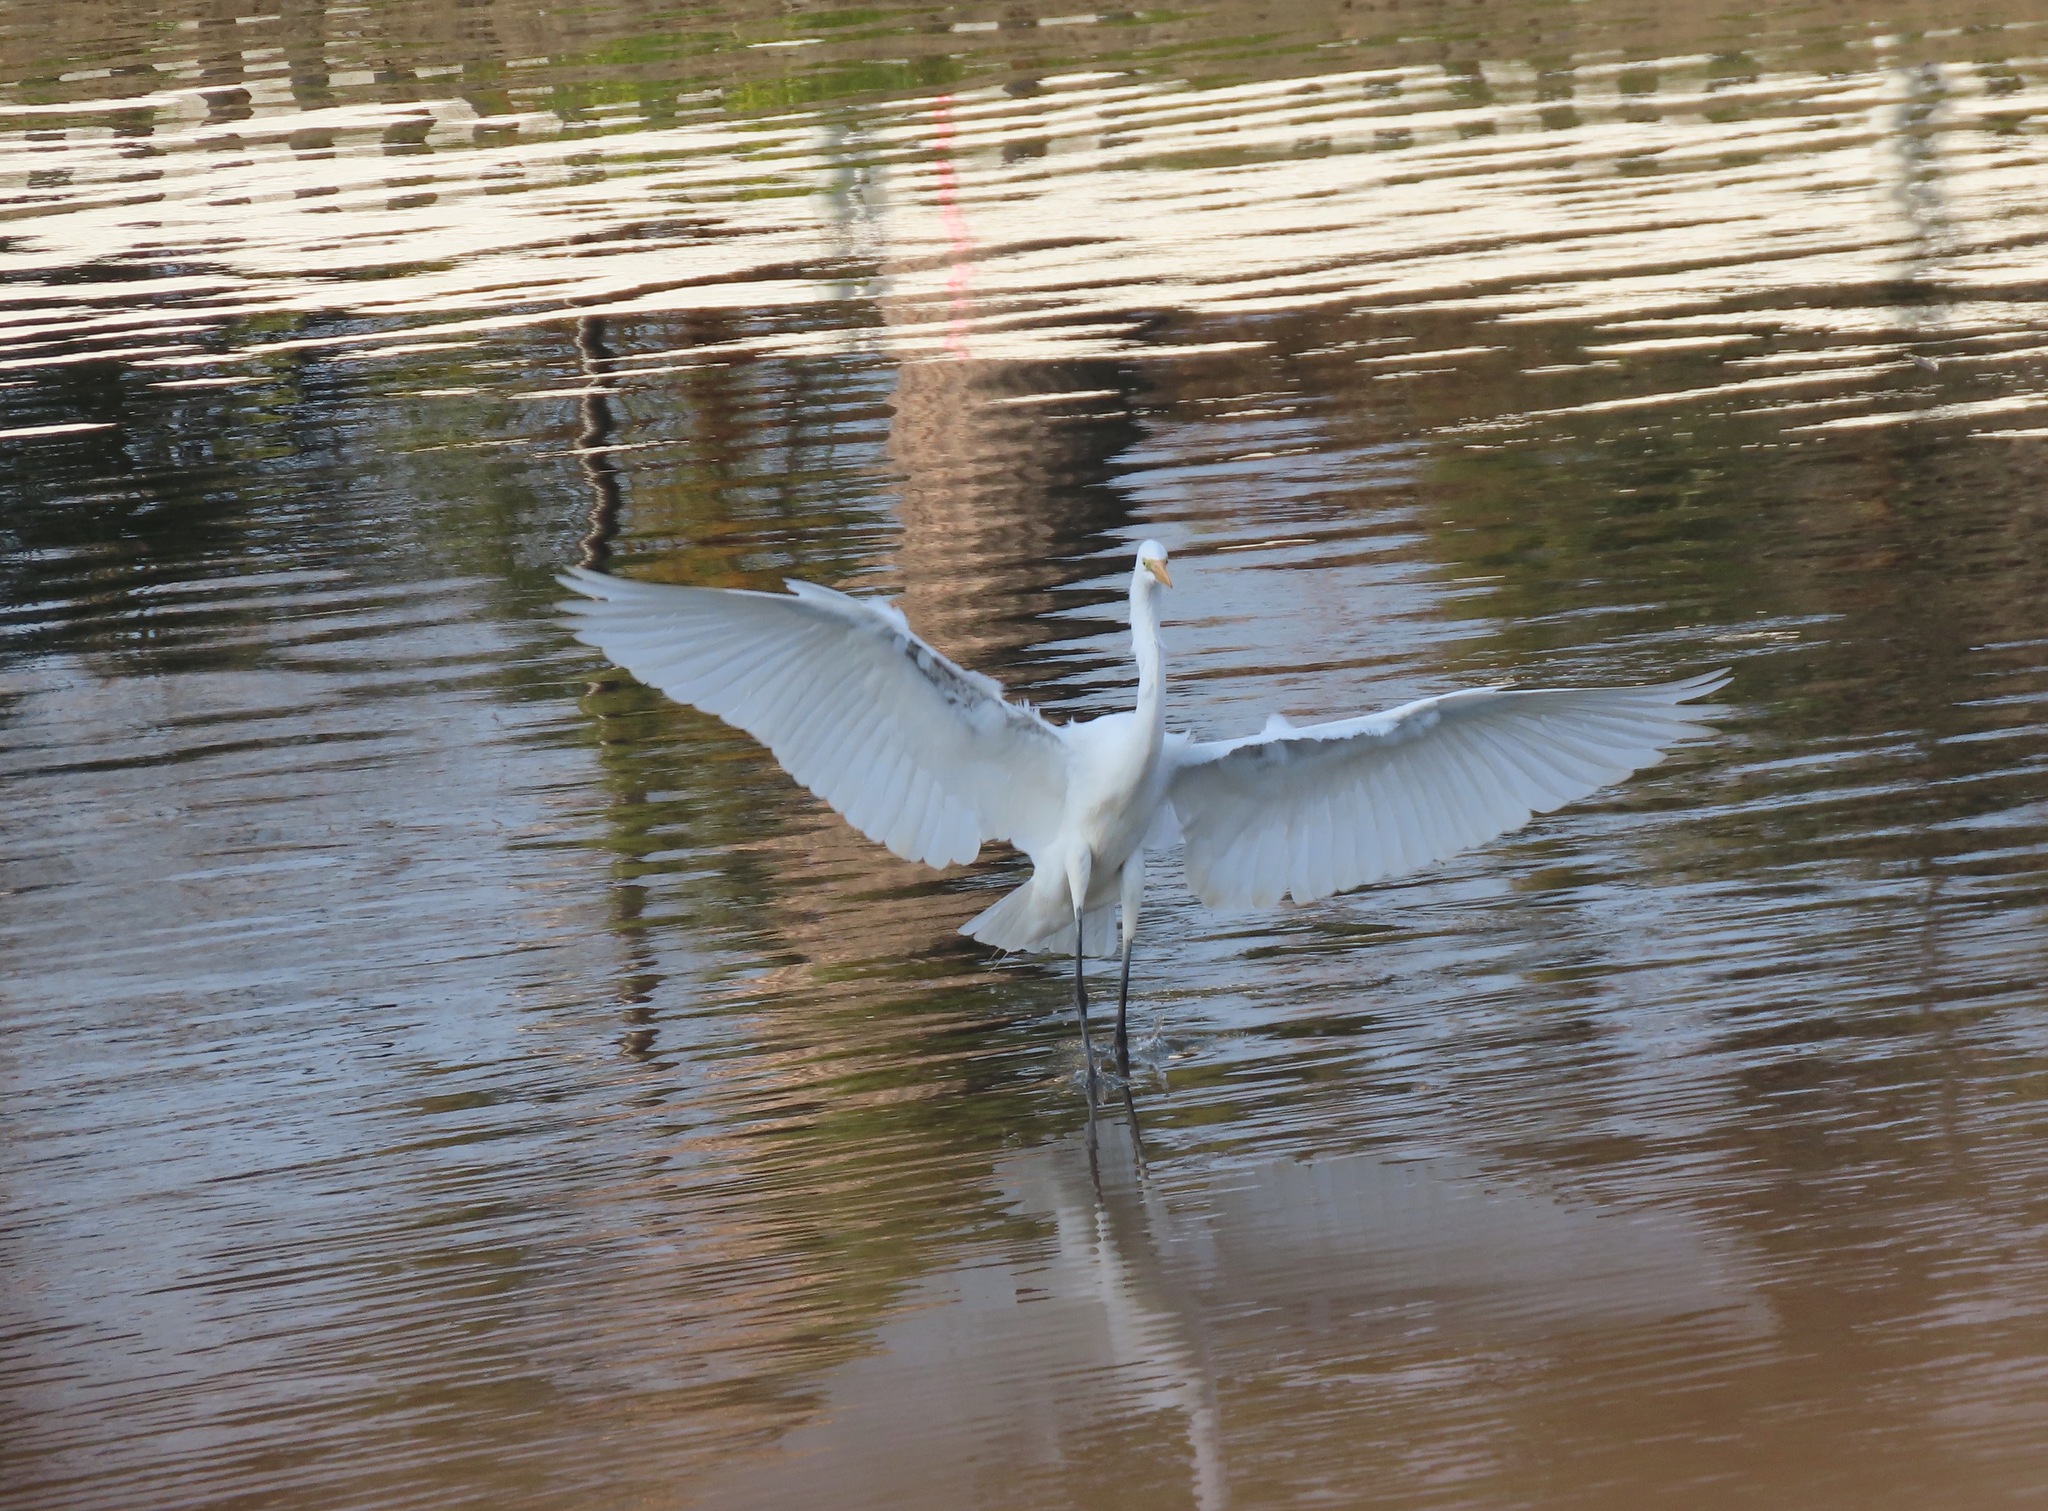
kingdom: Animalia
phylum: Chordata
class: Aves
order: Pelecaniformes
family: Ardeidae
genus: Ardea
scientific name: Ardea alba
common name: Great egret
